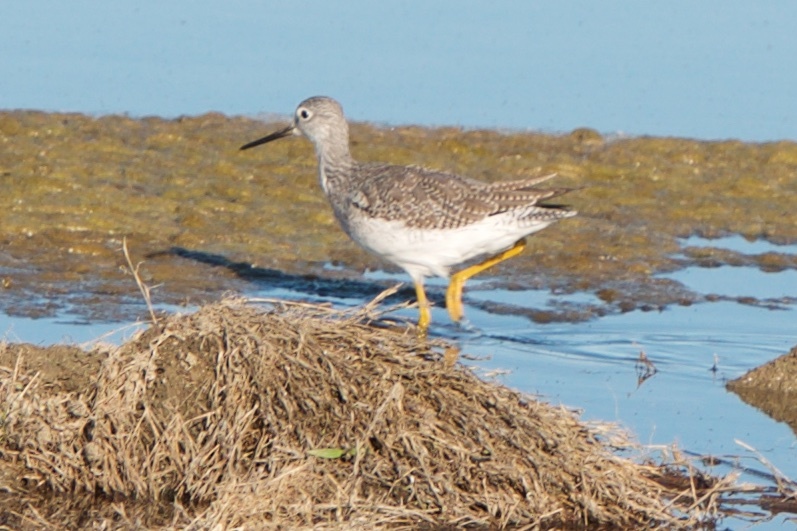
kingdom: Animalia
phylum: Chordata
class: Aves
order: Charadriiformes
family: Scolopacidae
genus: Tringa
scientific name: Tringa melanoleuca
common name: Greater yellowlegs
